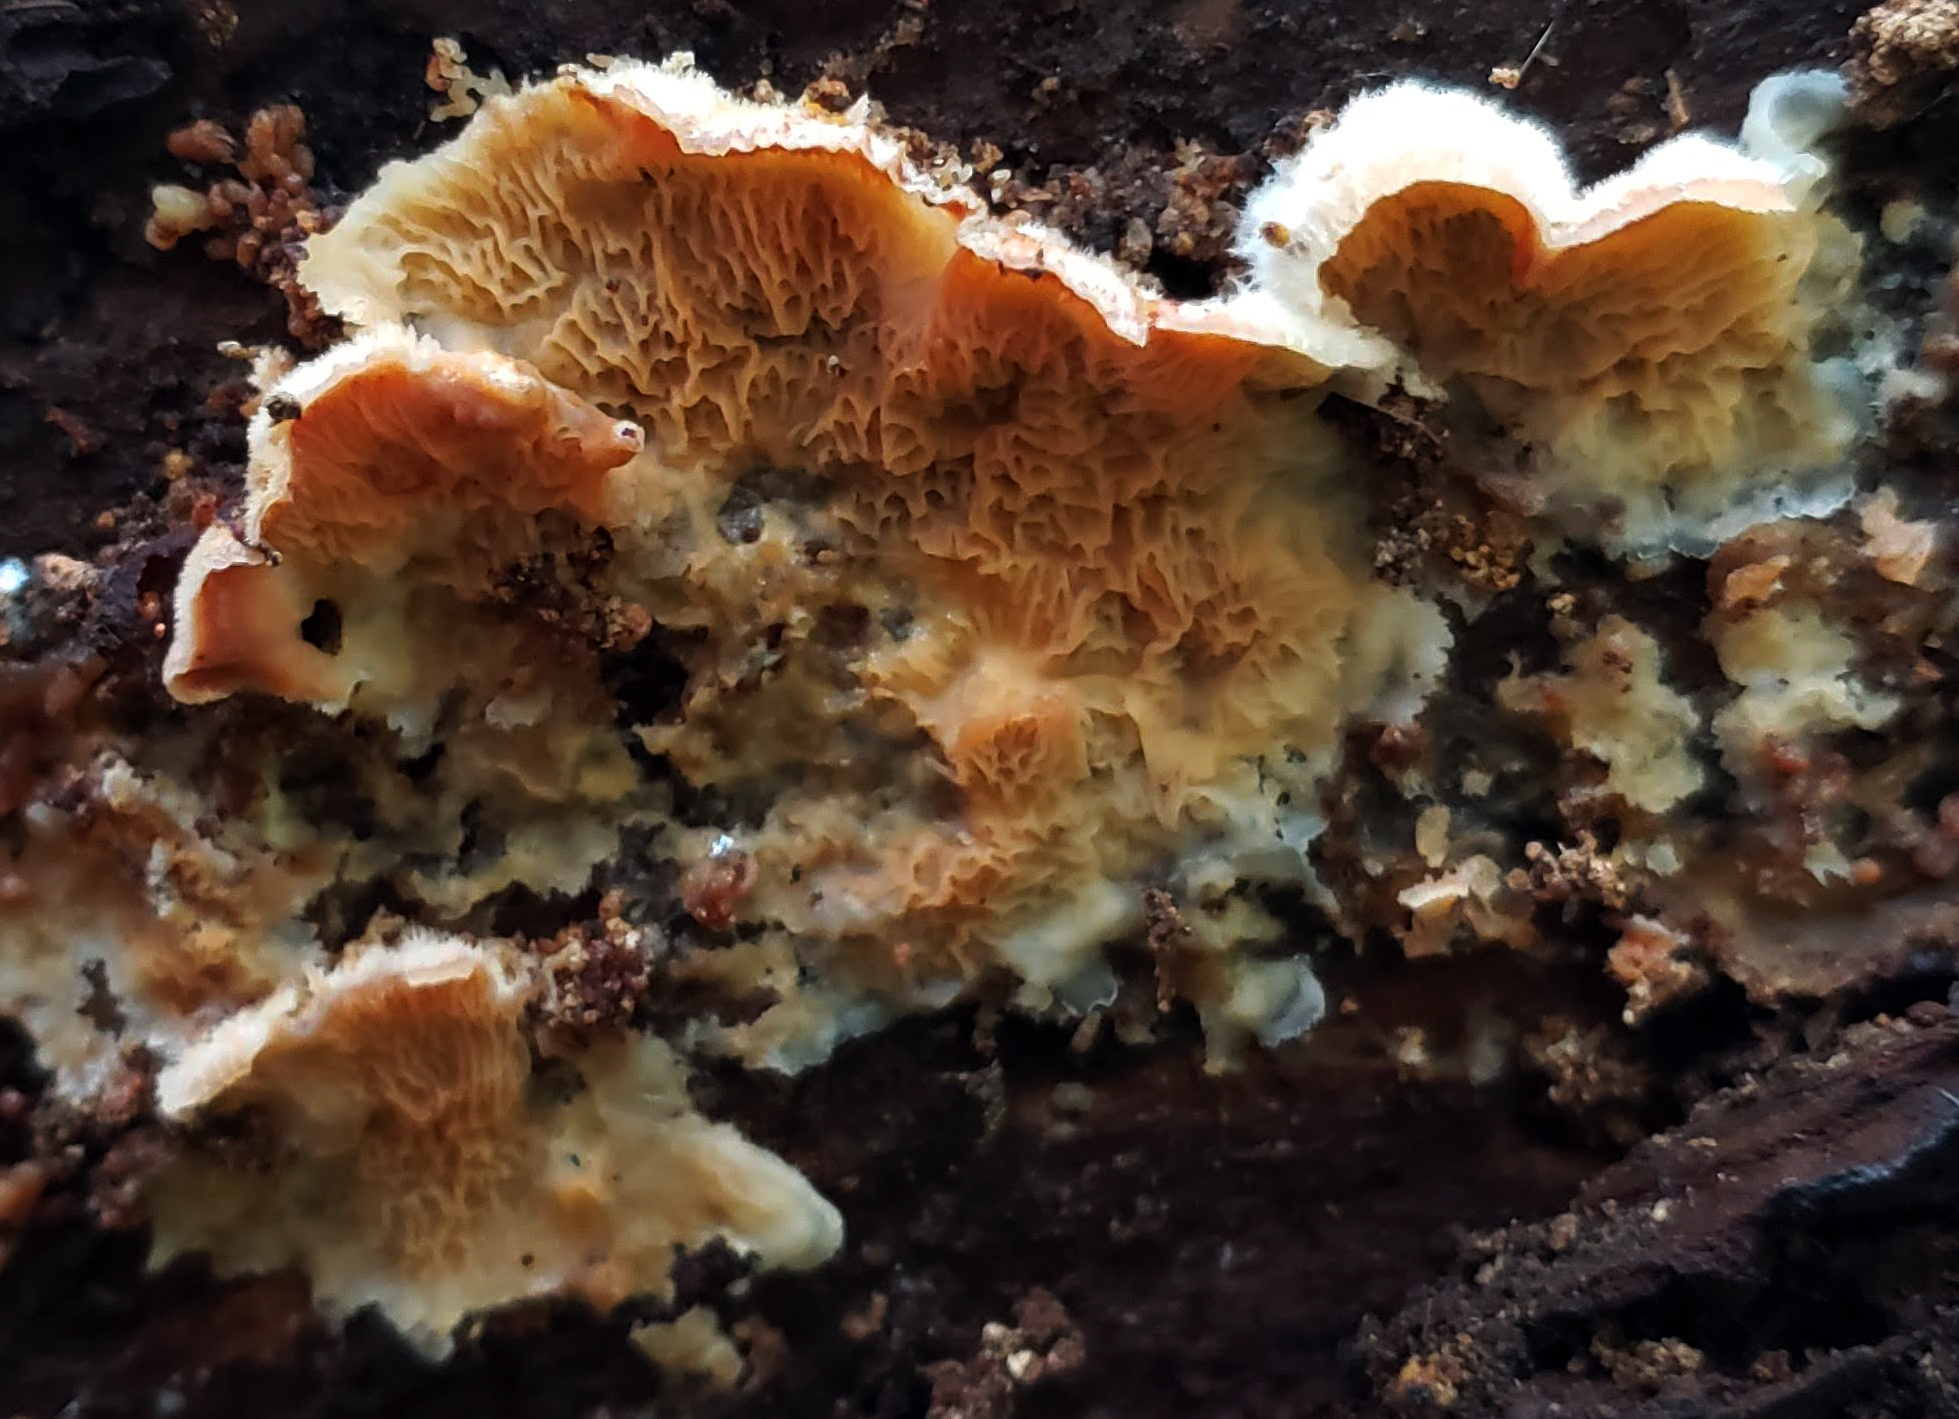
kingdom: Fungi
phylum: Basidiomycota
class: Agaricomycetes
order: Polyporales
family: Meruliaceae
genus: Phlebia
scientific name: Phlebia tremellosa
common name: Jelly rot
